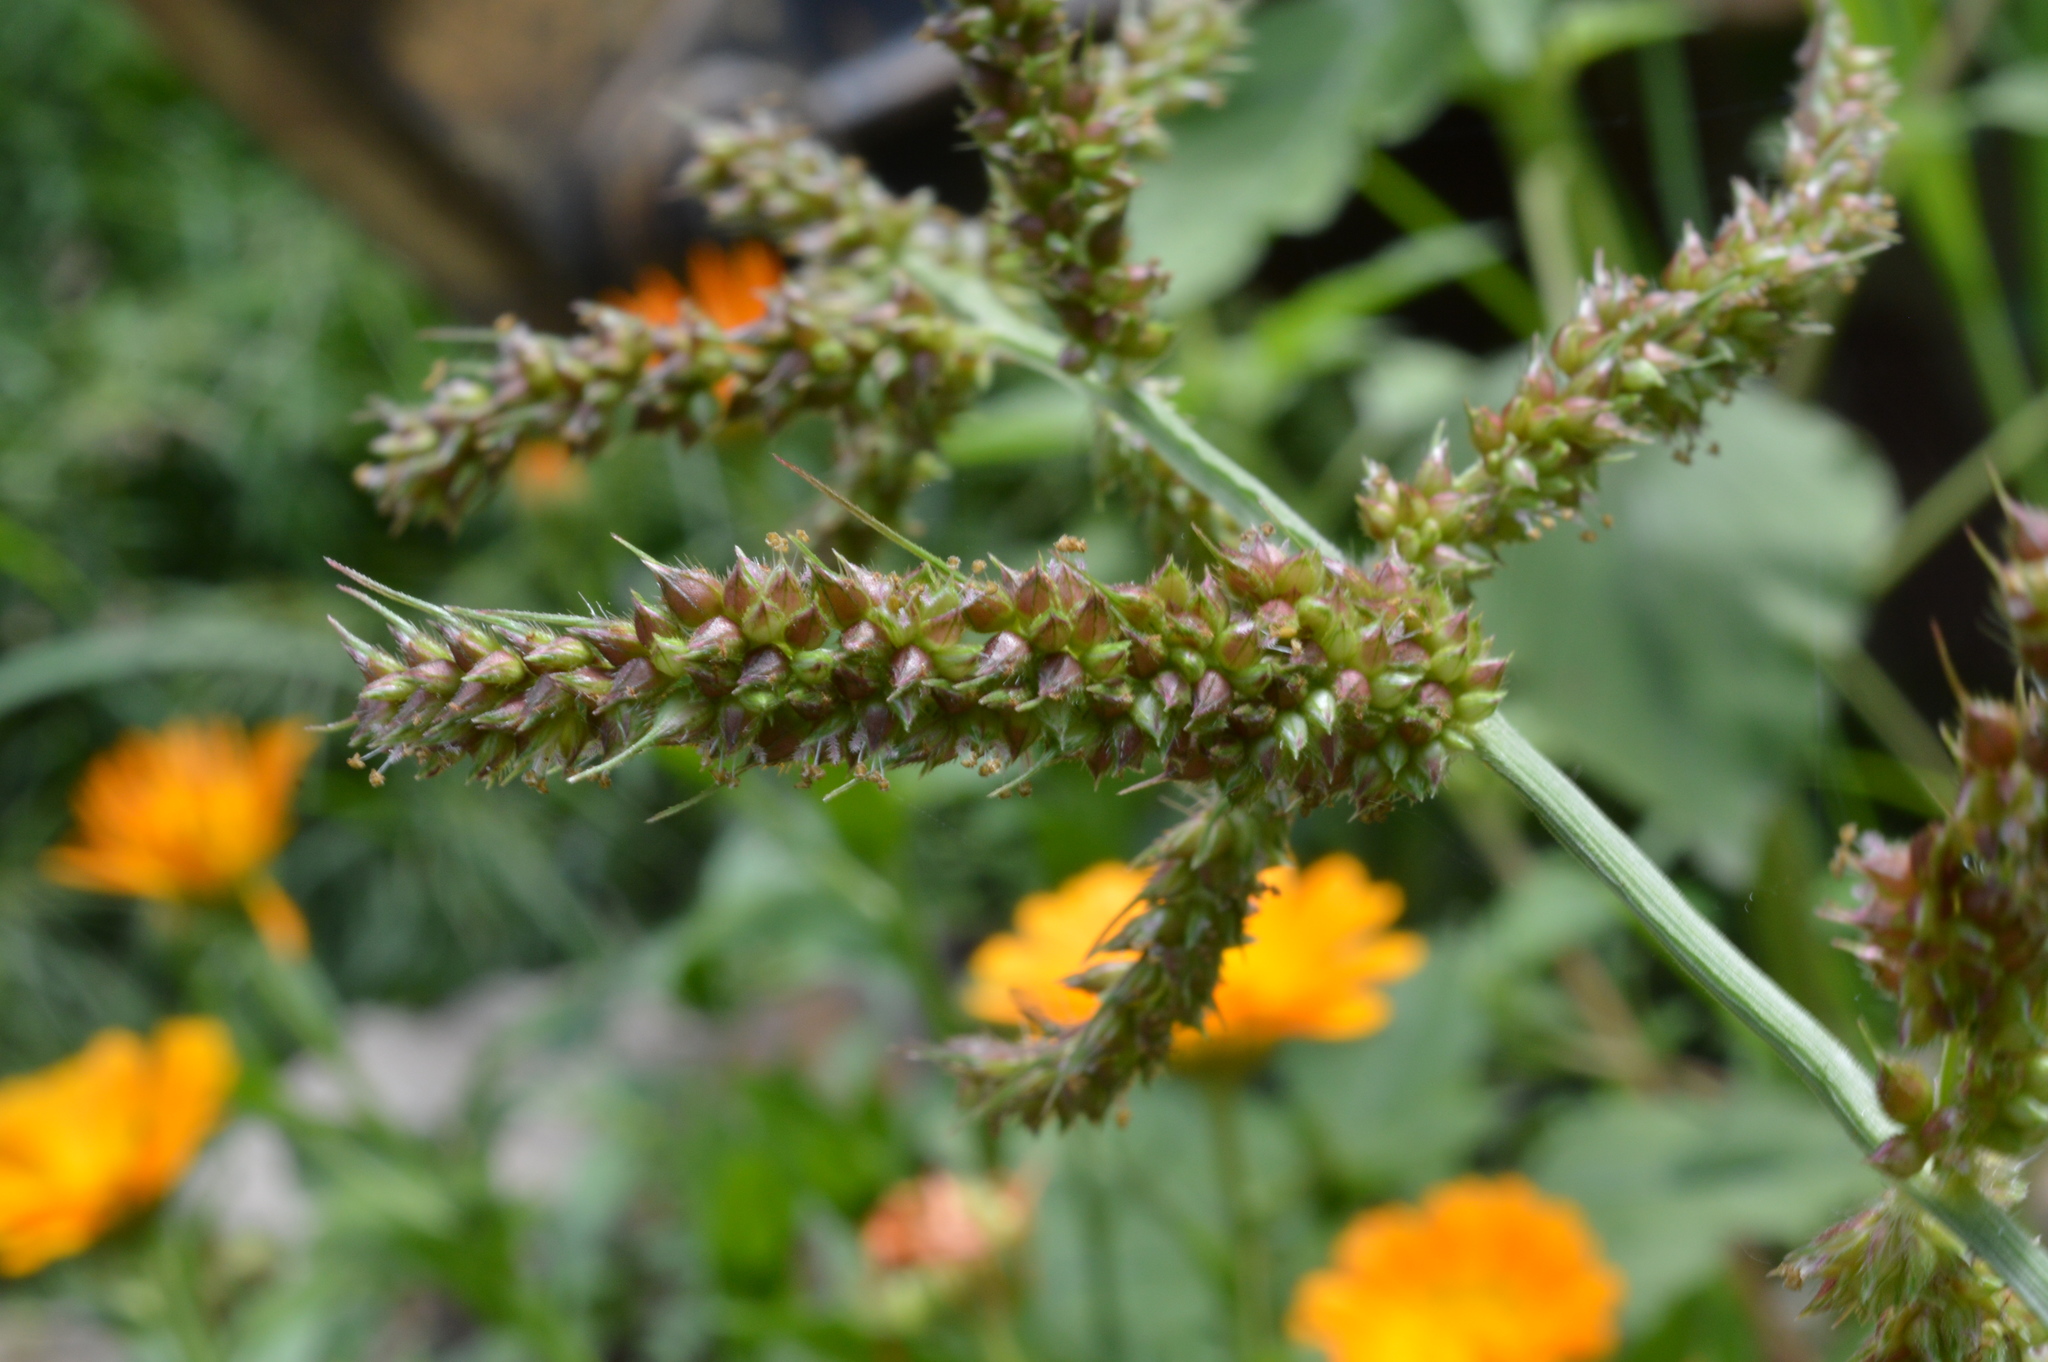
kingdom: Plantae
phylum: Tracheophyta
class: Liliopsida
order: Poales
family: Poaceae
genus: Echinochloa
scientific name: Echinochloa crus-galli
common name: Cockspur
